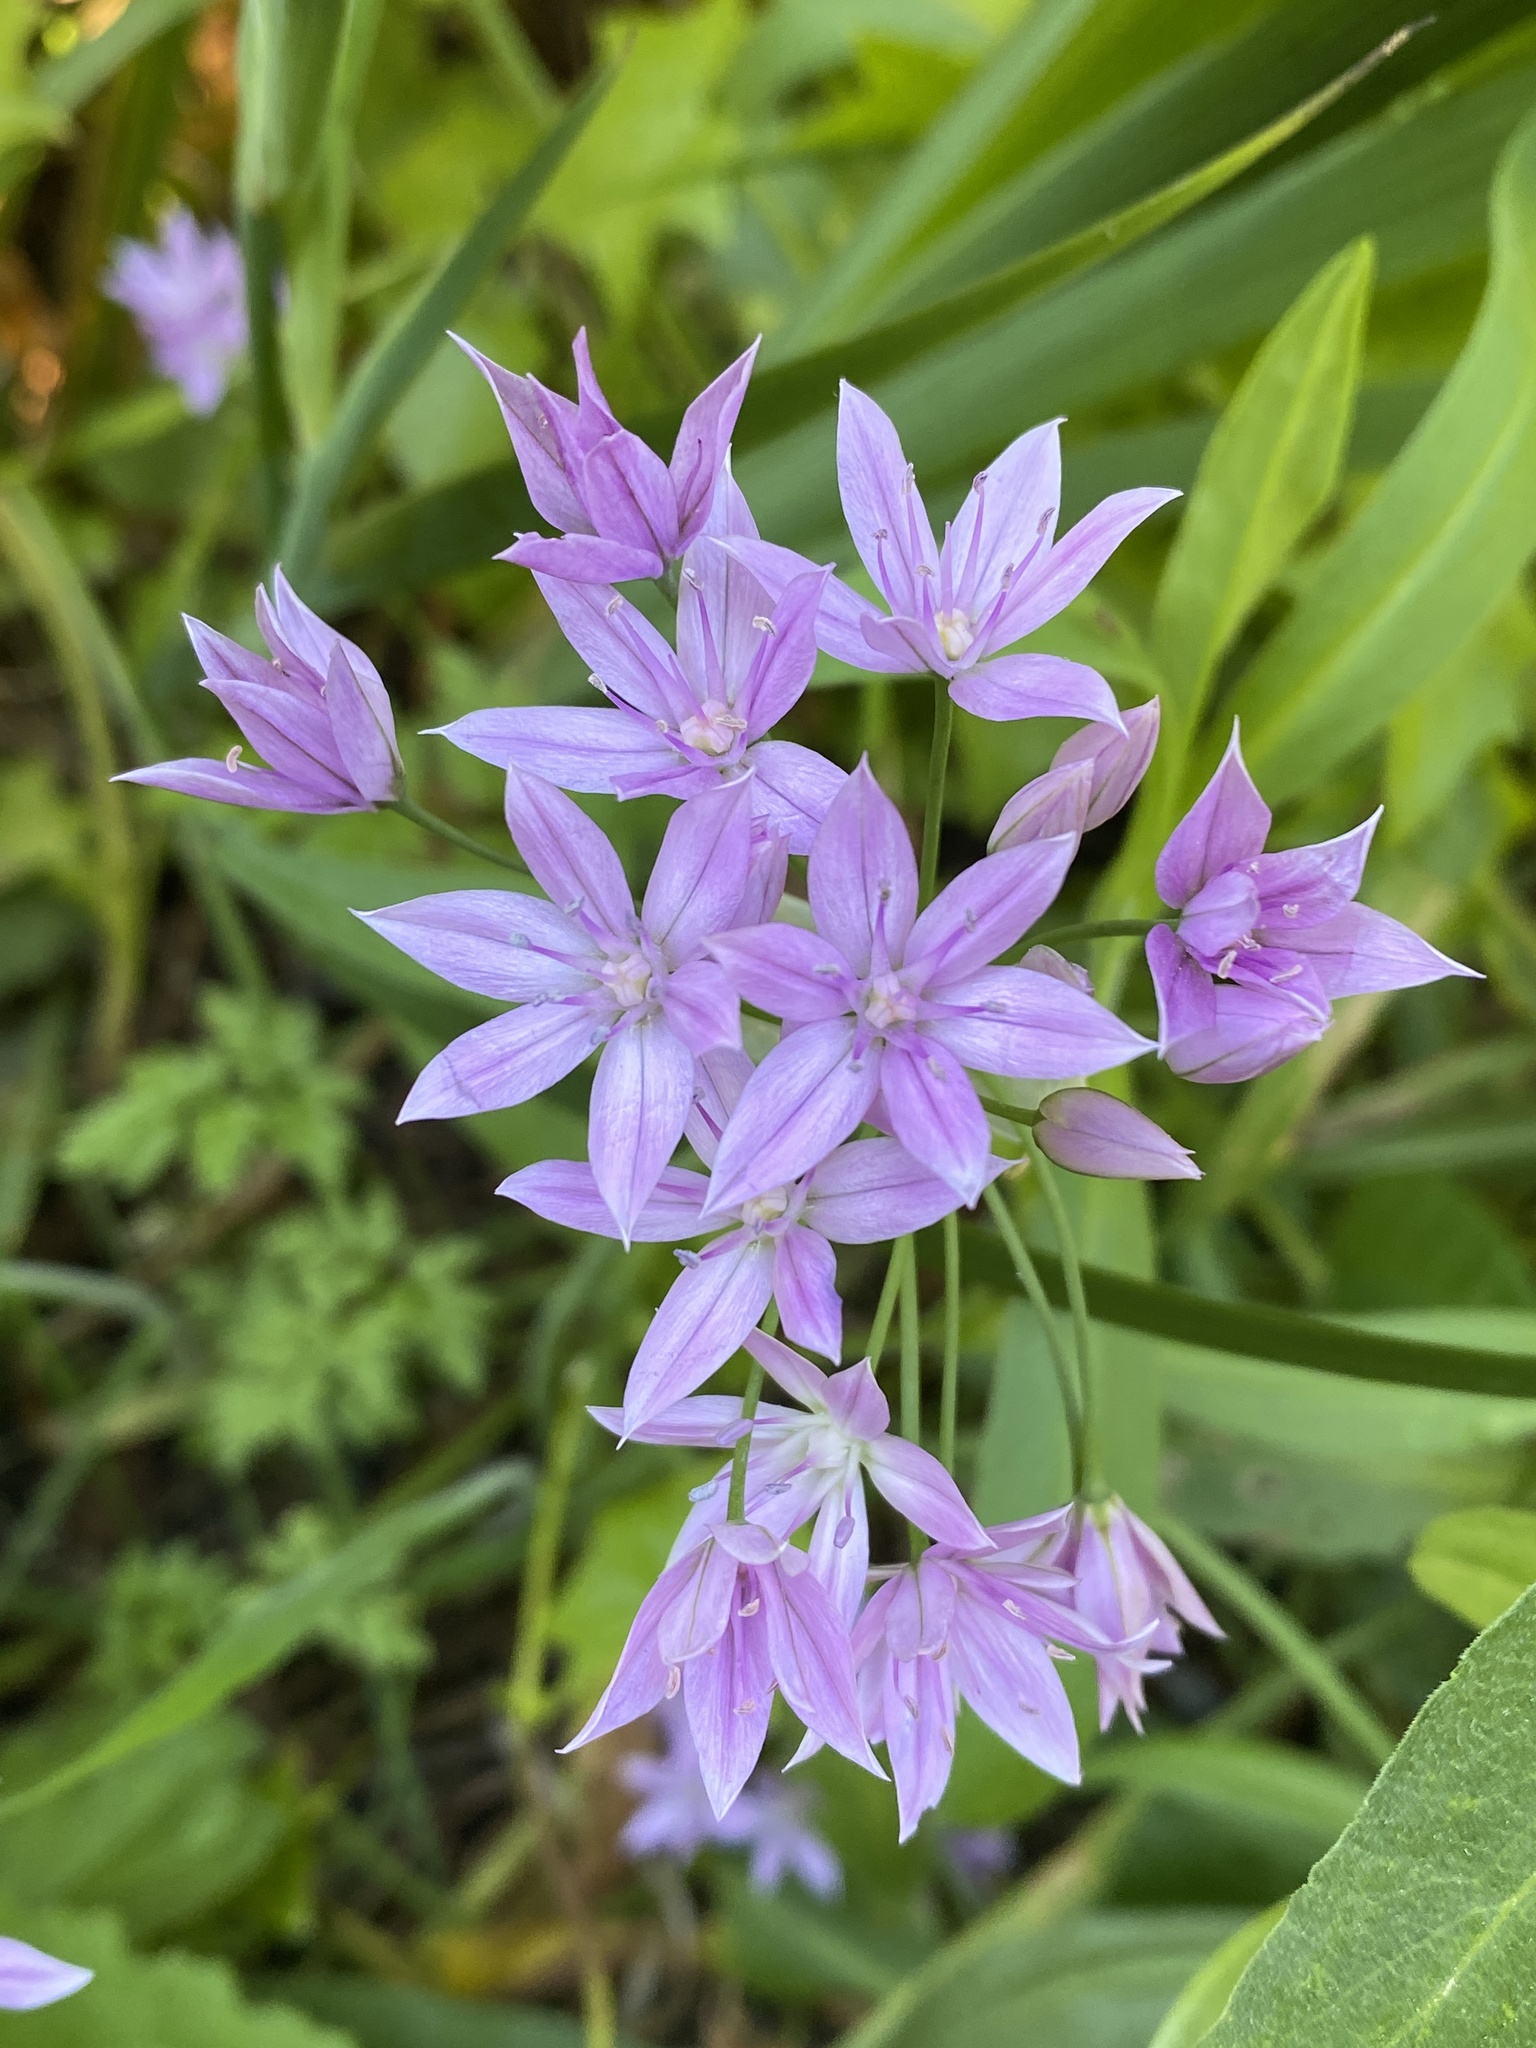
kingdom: Plantae
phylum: Tracheophyta
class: Liliopsida
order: Asparagales
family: Amaryllidaceae
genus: Allium
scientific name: Allium unifolium
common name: American garlic
